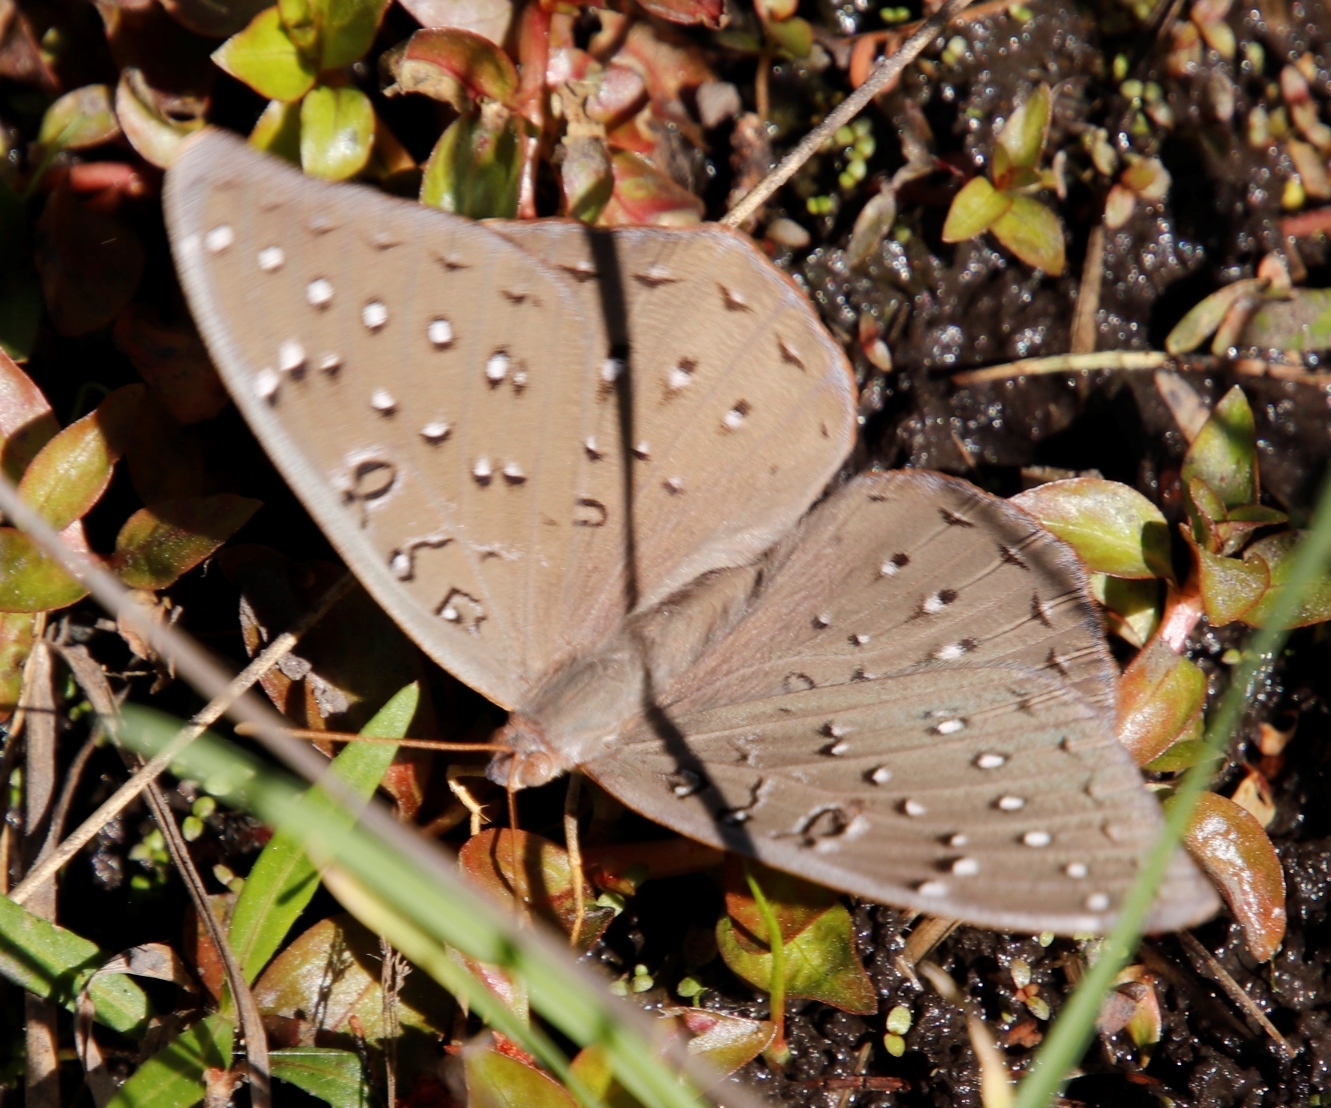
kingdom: Animalia
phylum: Arthropoda
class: Insecta
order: Lepidoptera
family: Nymphalidae
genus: Hamanumida
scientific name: Hamanumida daedalus
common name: Guinea-fowl butterfly
